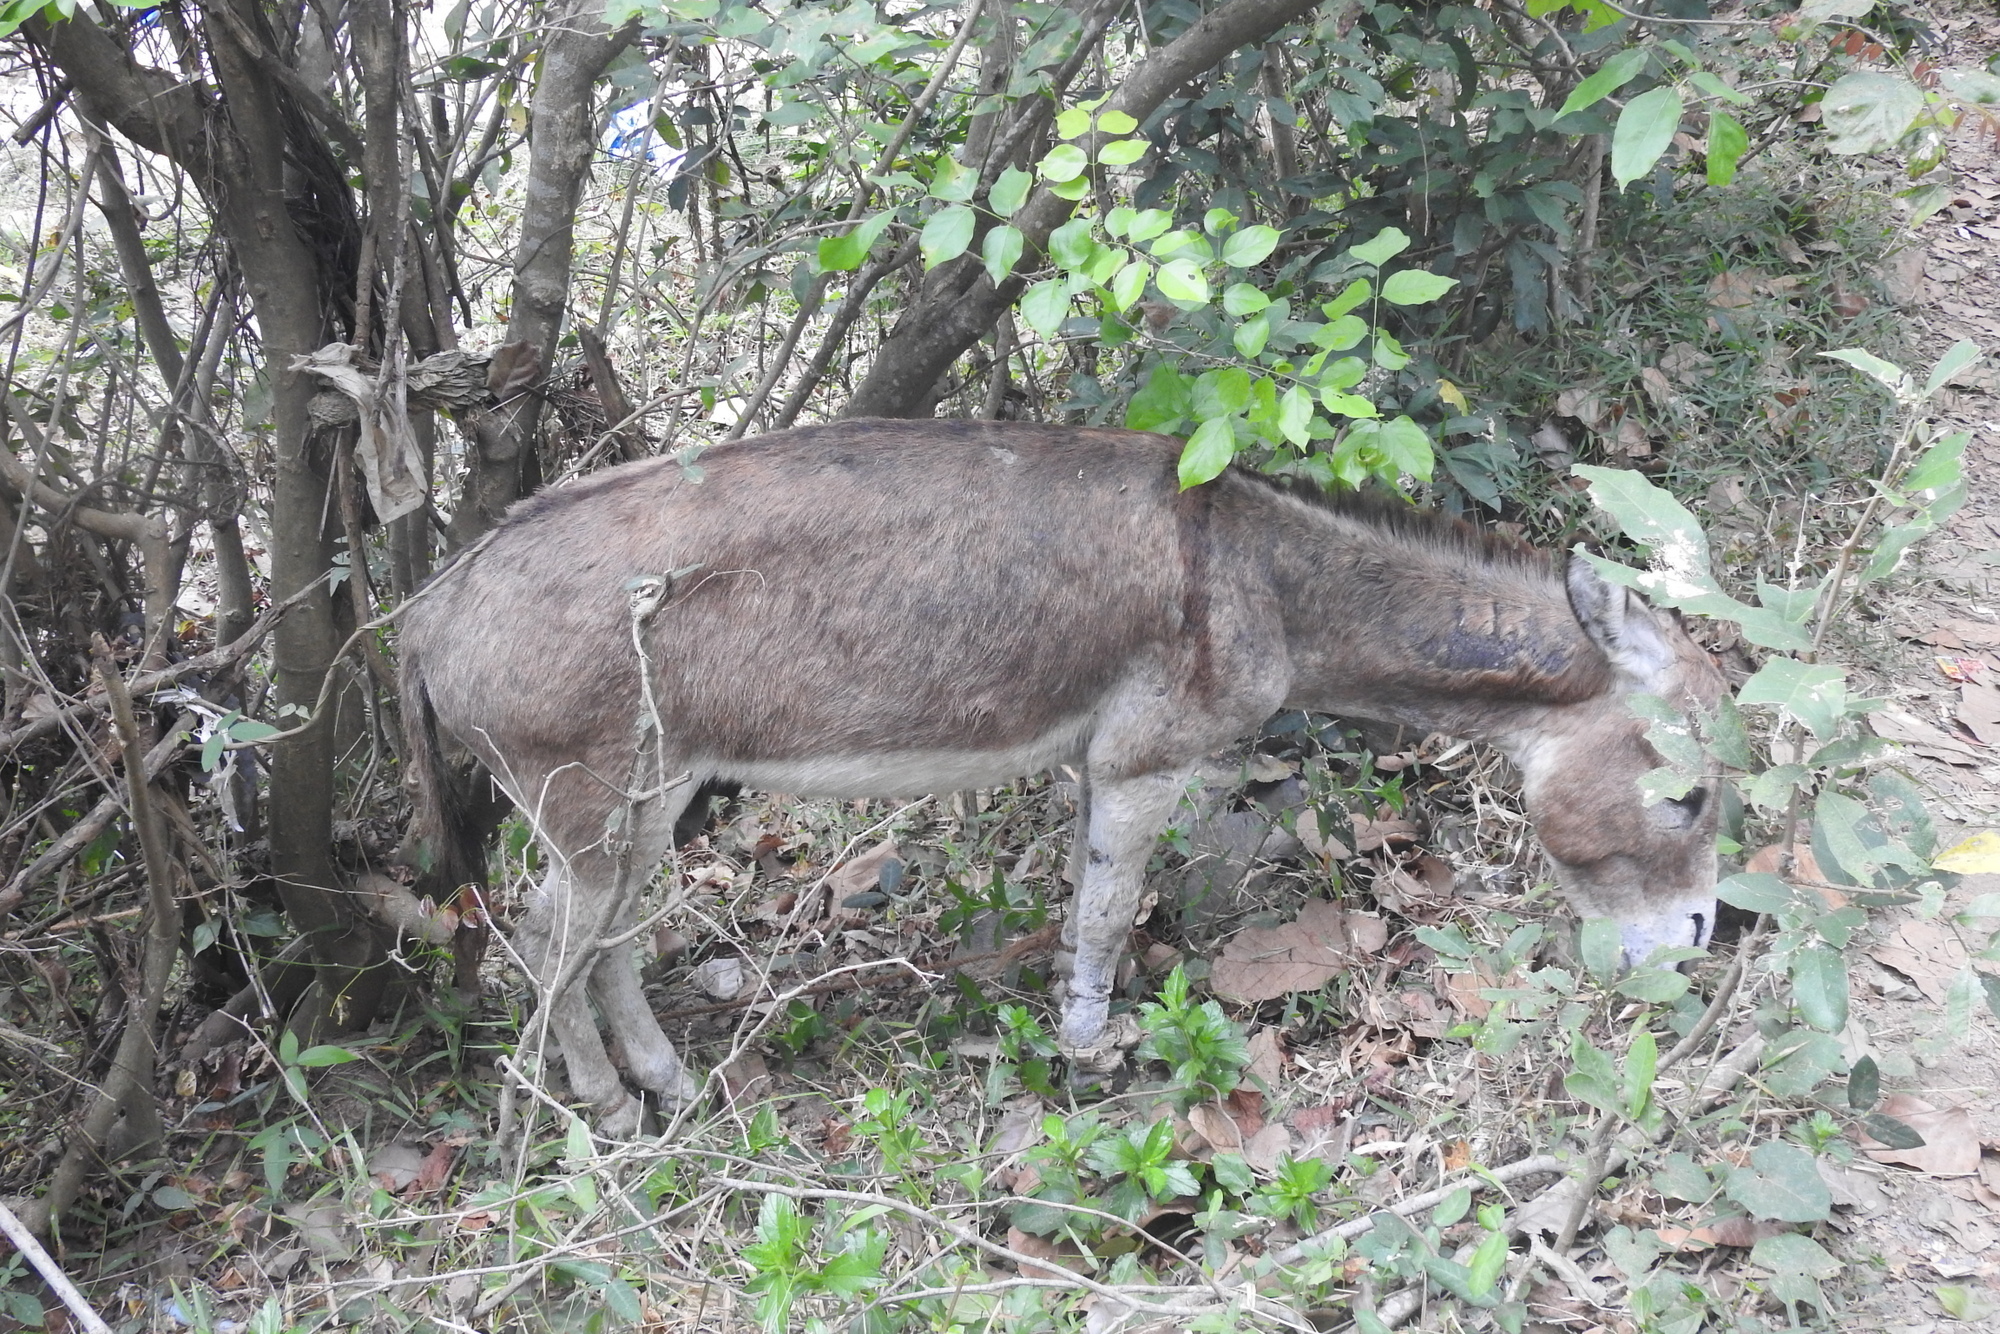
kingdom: Animalia
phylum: Chordata
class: Mammalia
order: Perissodactyla
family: Equidae
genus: Equus
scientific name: Equus asinus
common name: Ass
